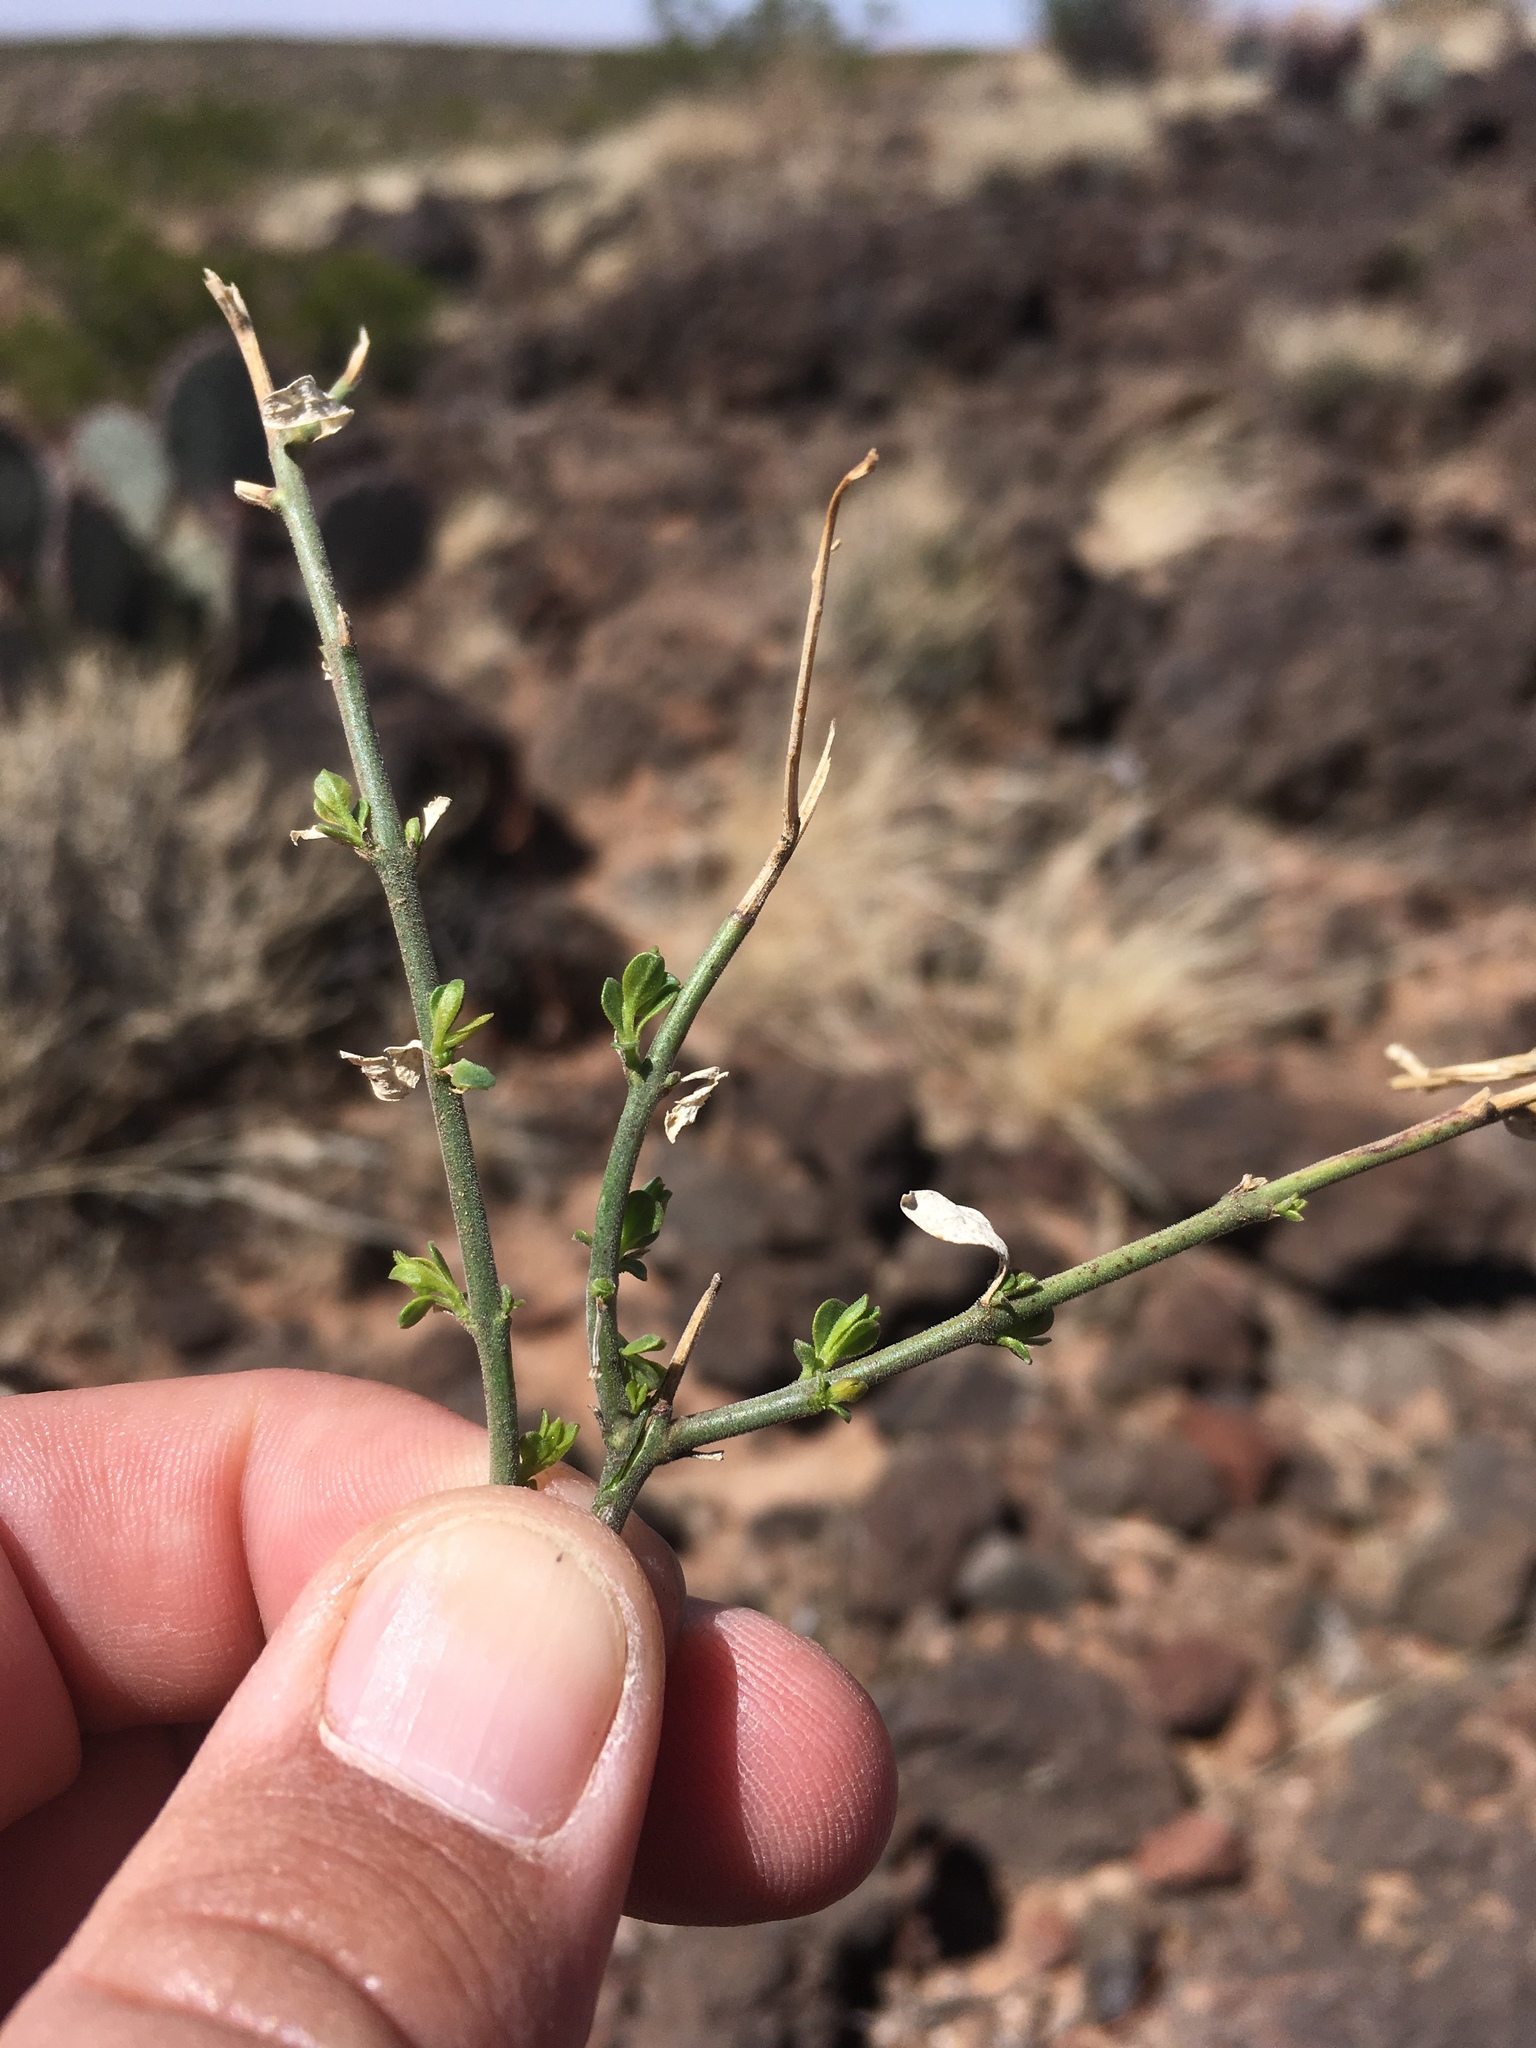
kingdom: Plantae
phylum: Tracheophyta
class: Magnoliopsida
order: Lamiales
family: Oleaceae
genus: Menodora
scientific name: Menodora scabra
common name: Rough menodora
